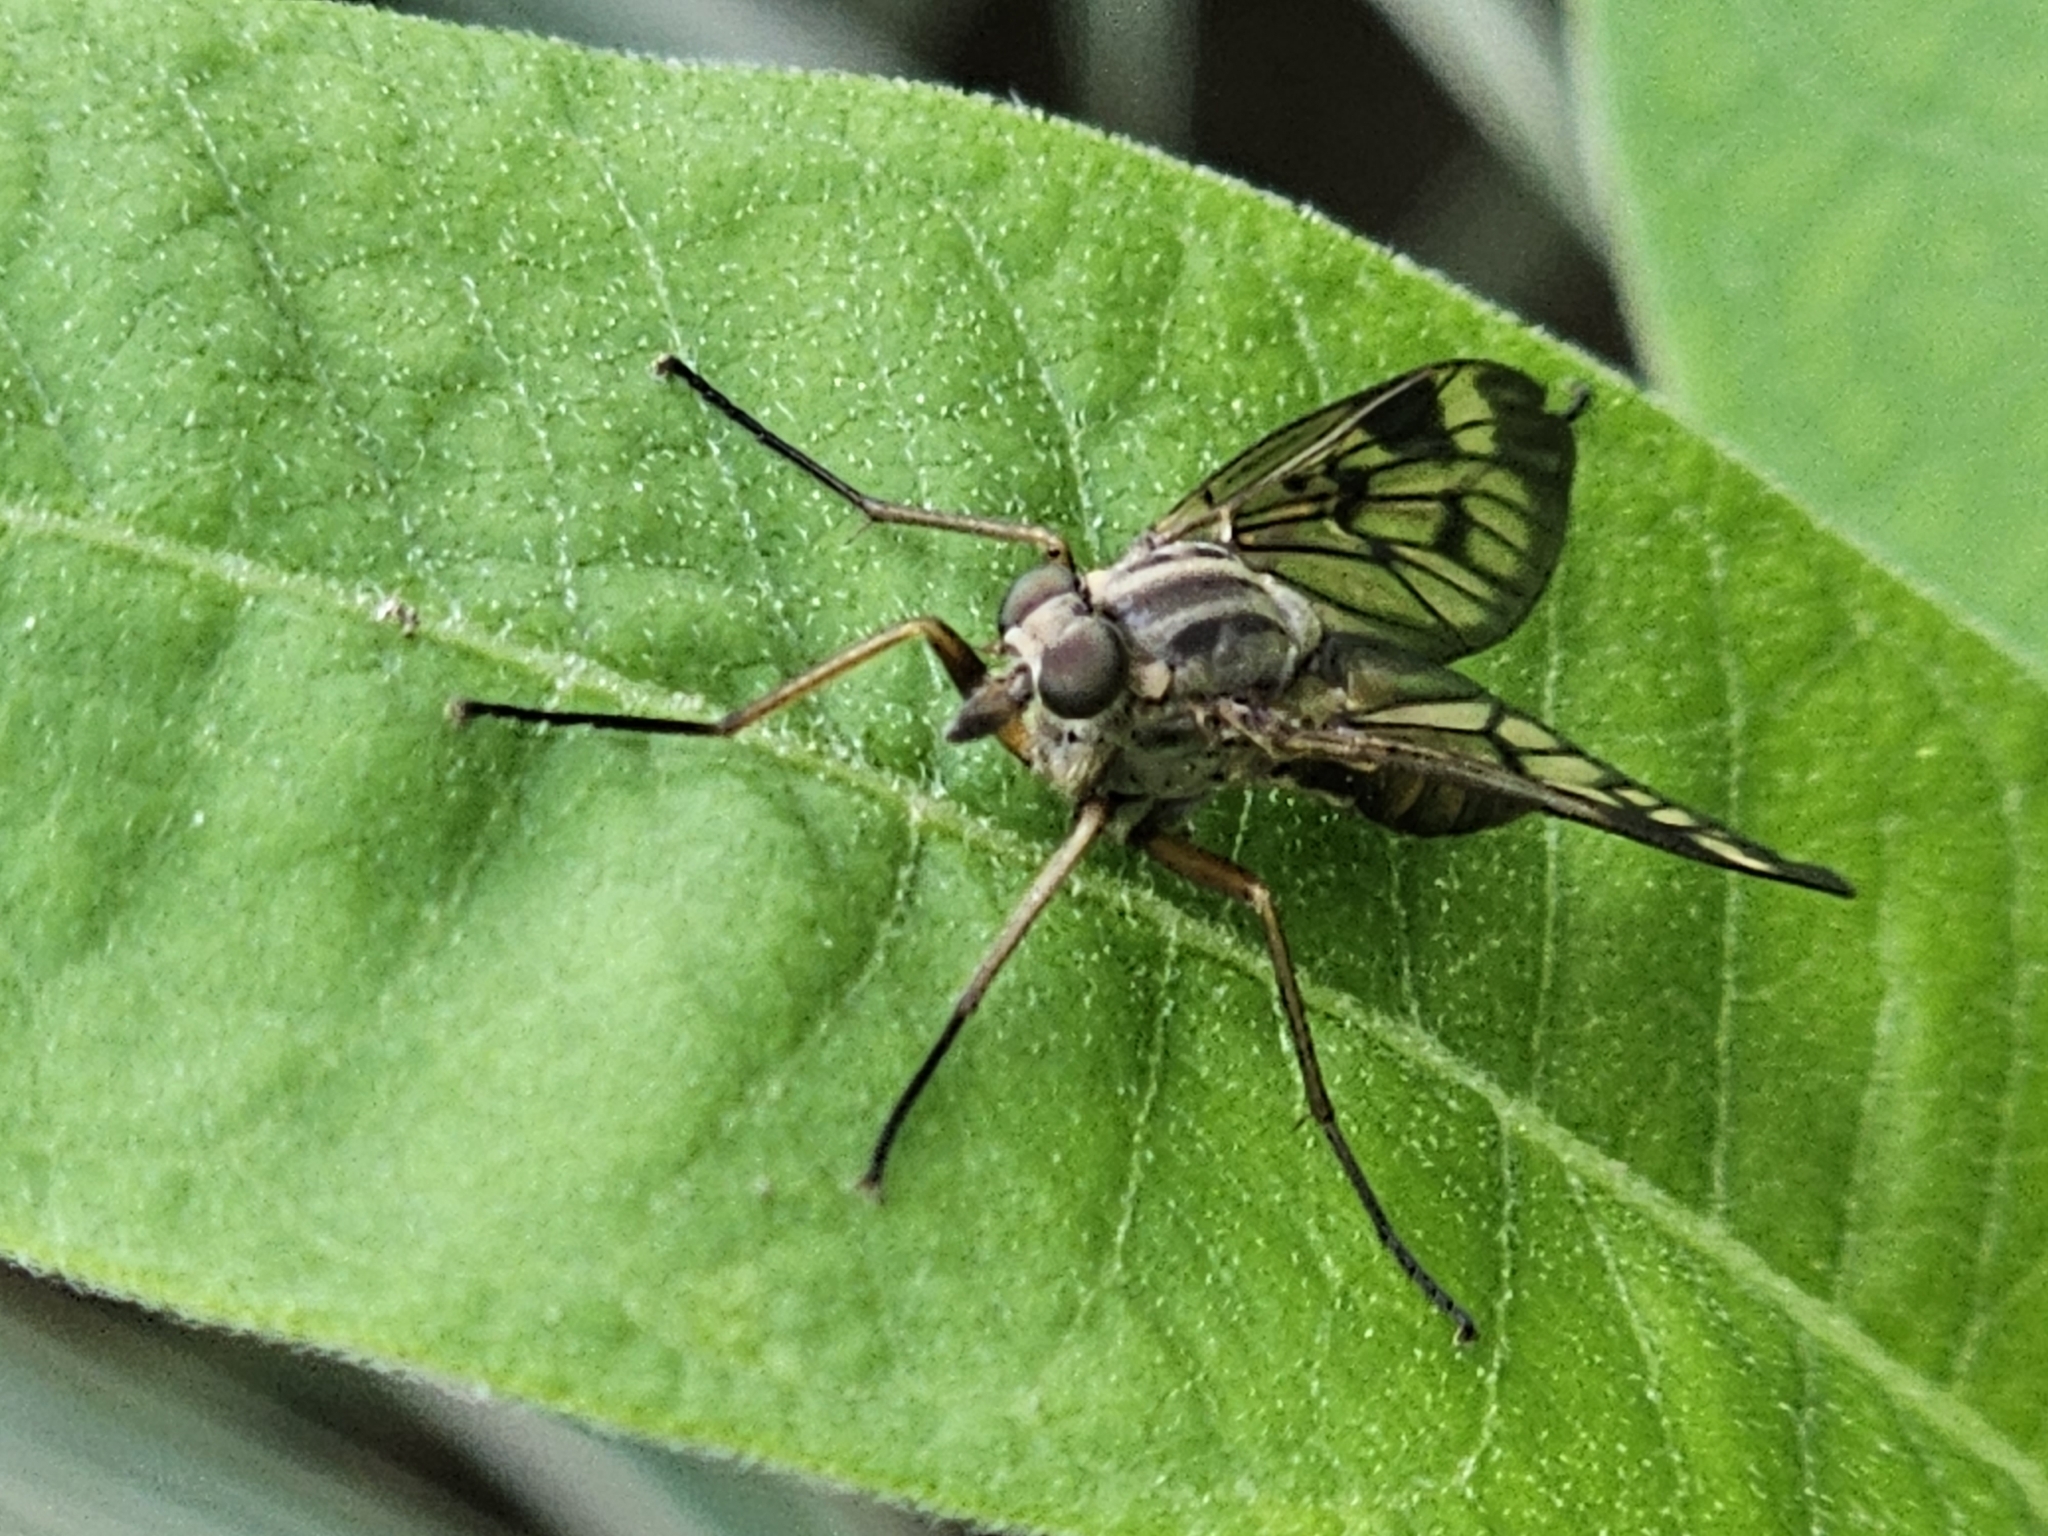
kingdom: Animalia
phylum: Arthropoda
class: Insecta
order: Diptera
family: Rhagionidae
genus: Rhagio
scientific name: Rhagio scolopacea
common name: Downlooker snipefly
